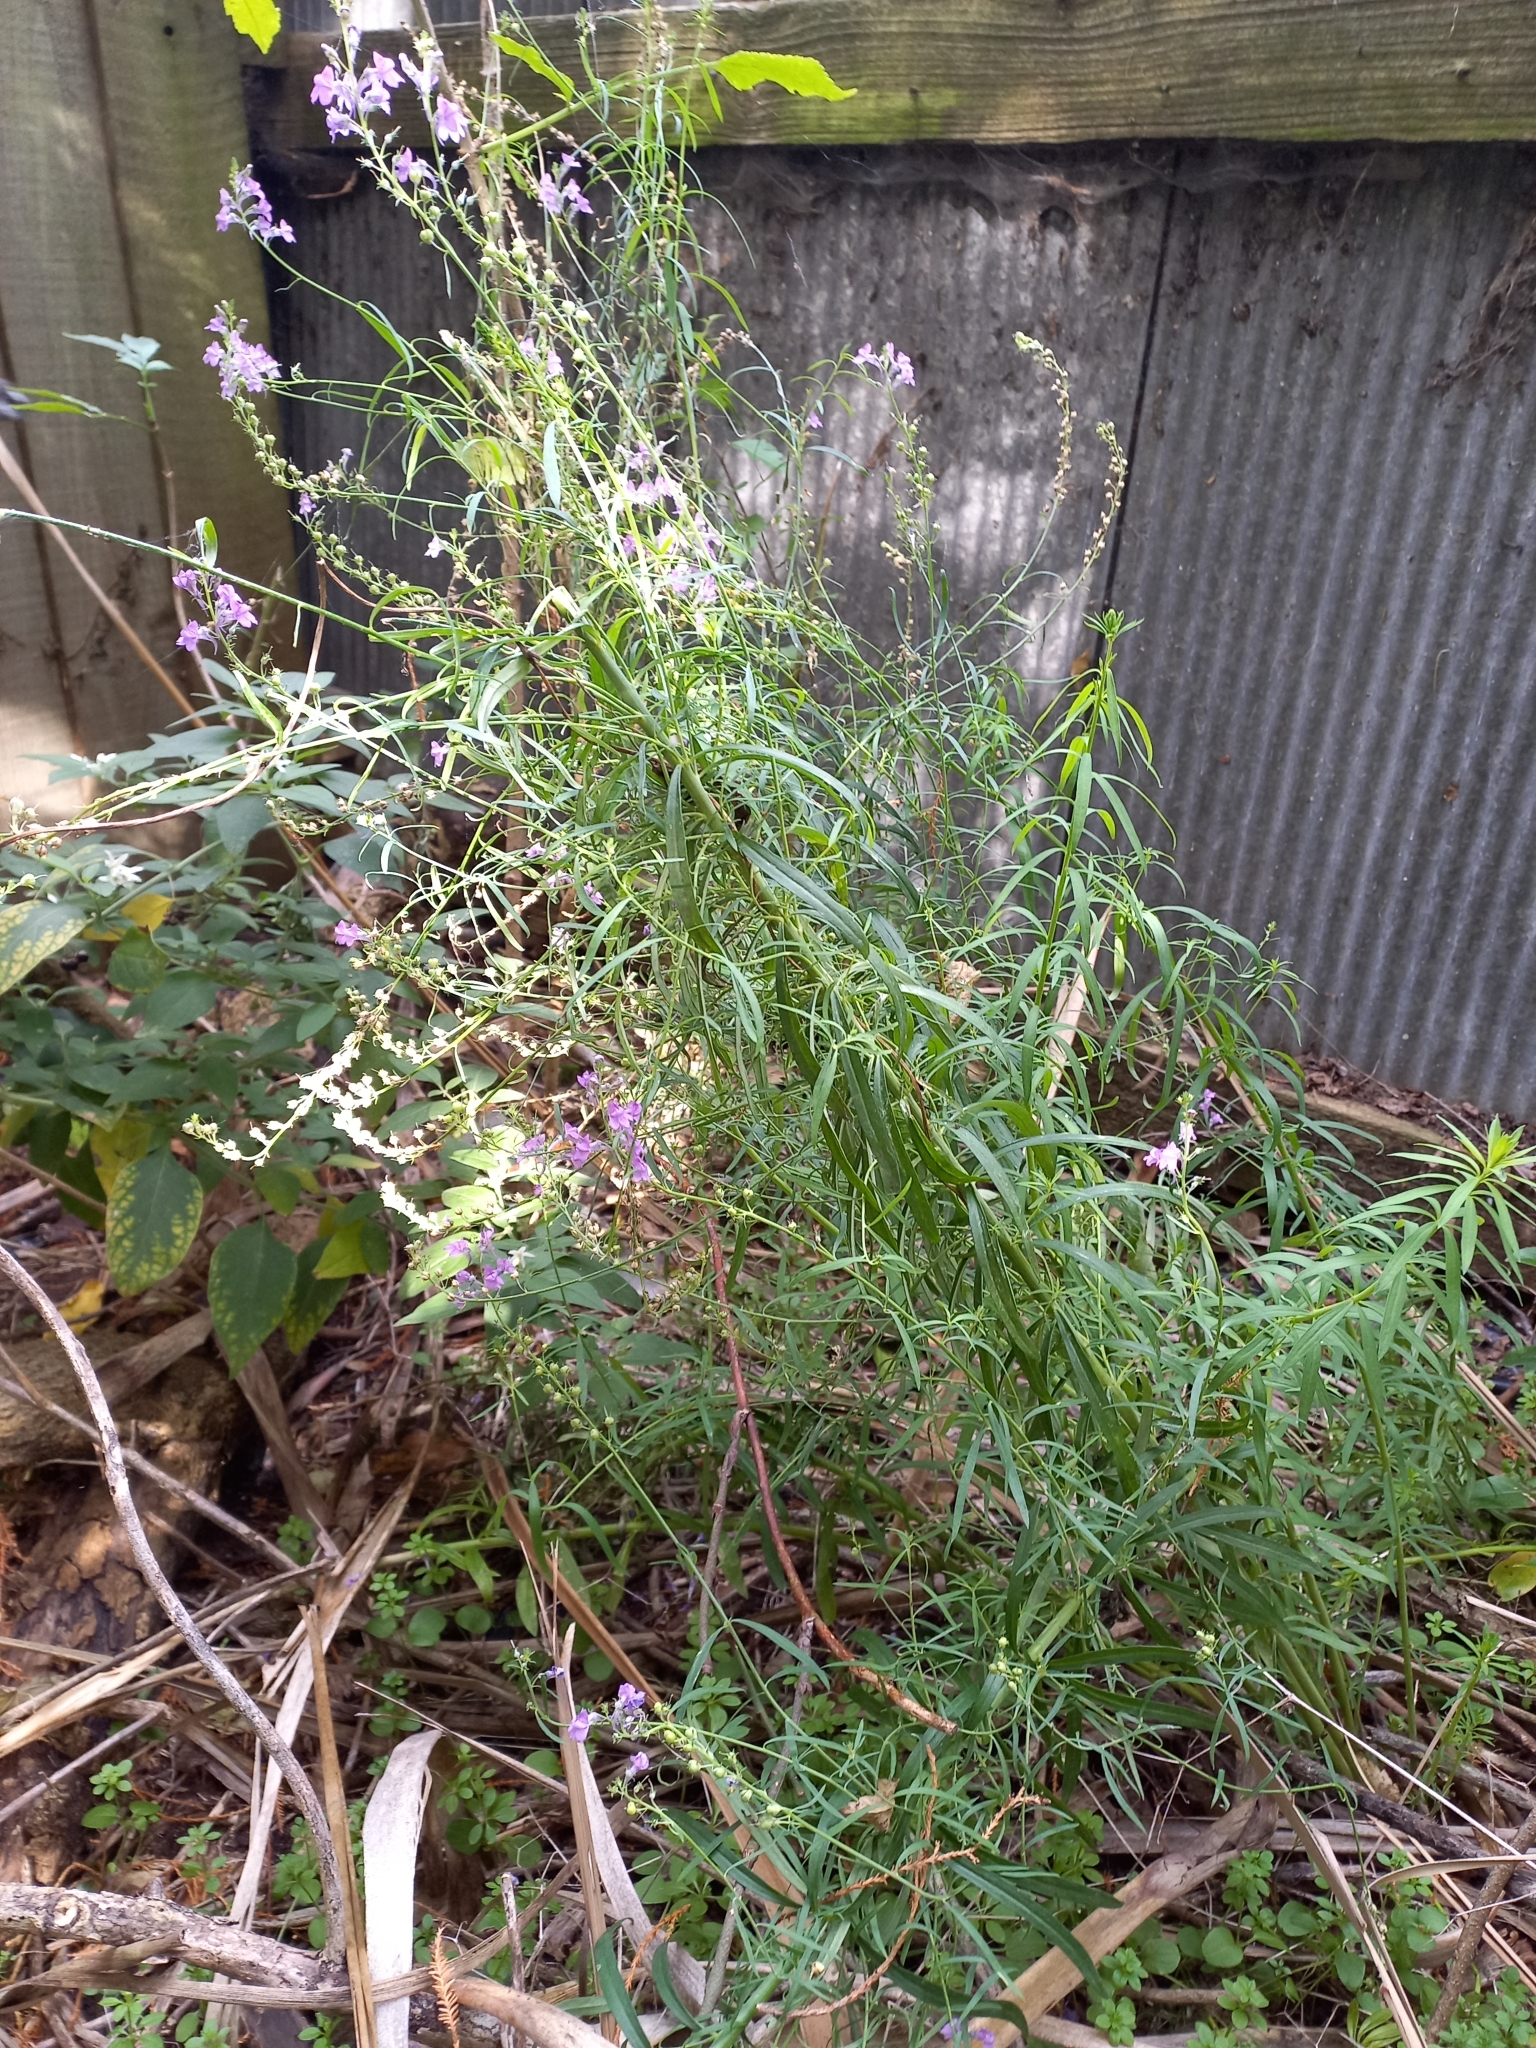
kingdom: Plantae
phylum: Tracheophyta
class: Magnoliopsida
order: Lamiales
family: Plantaginaceae
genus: Linaria
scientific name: Linaria purpurea
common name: Purple toadflax
